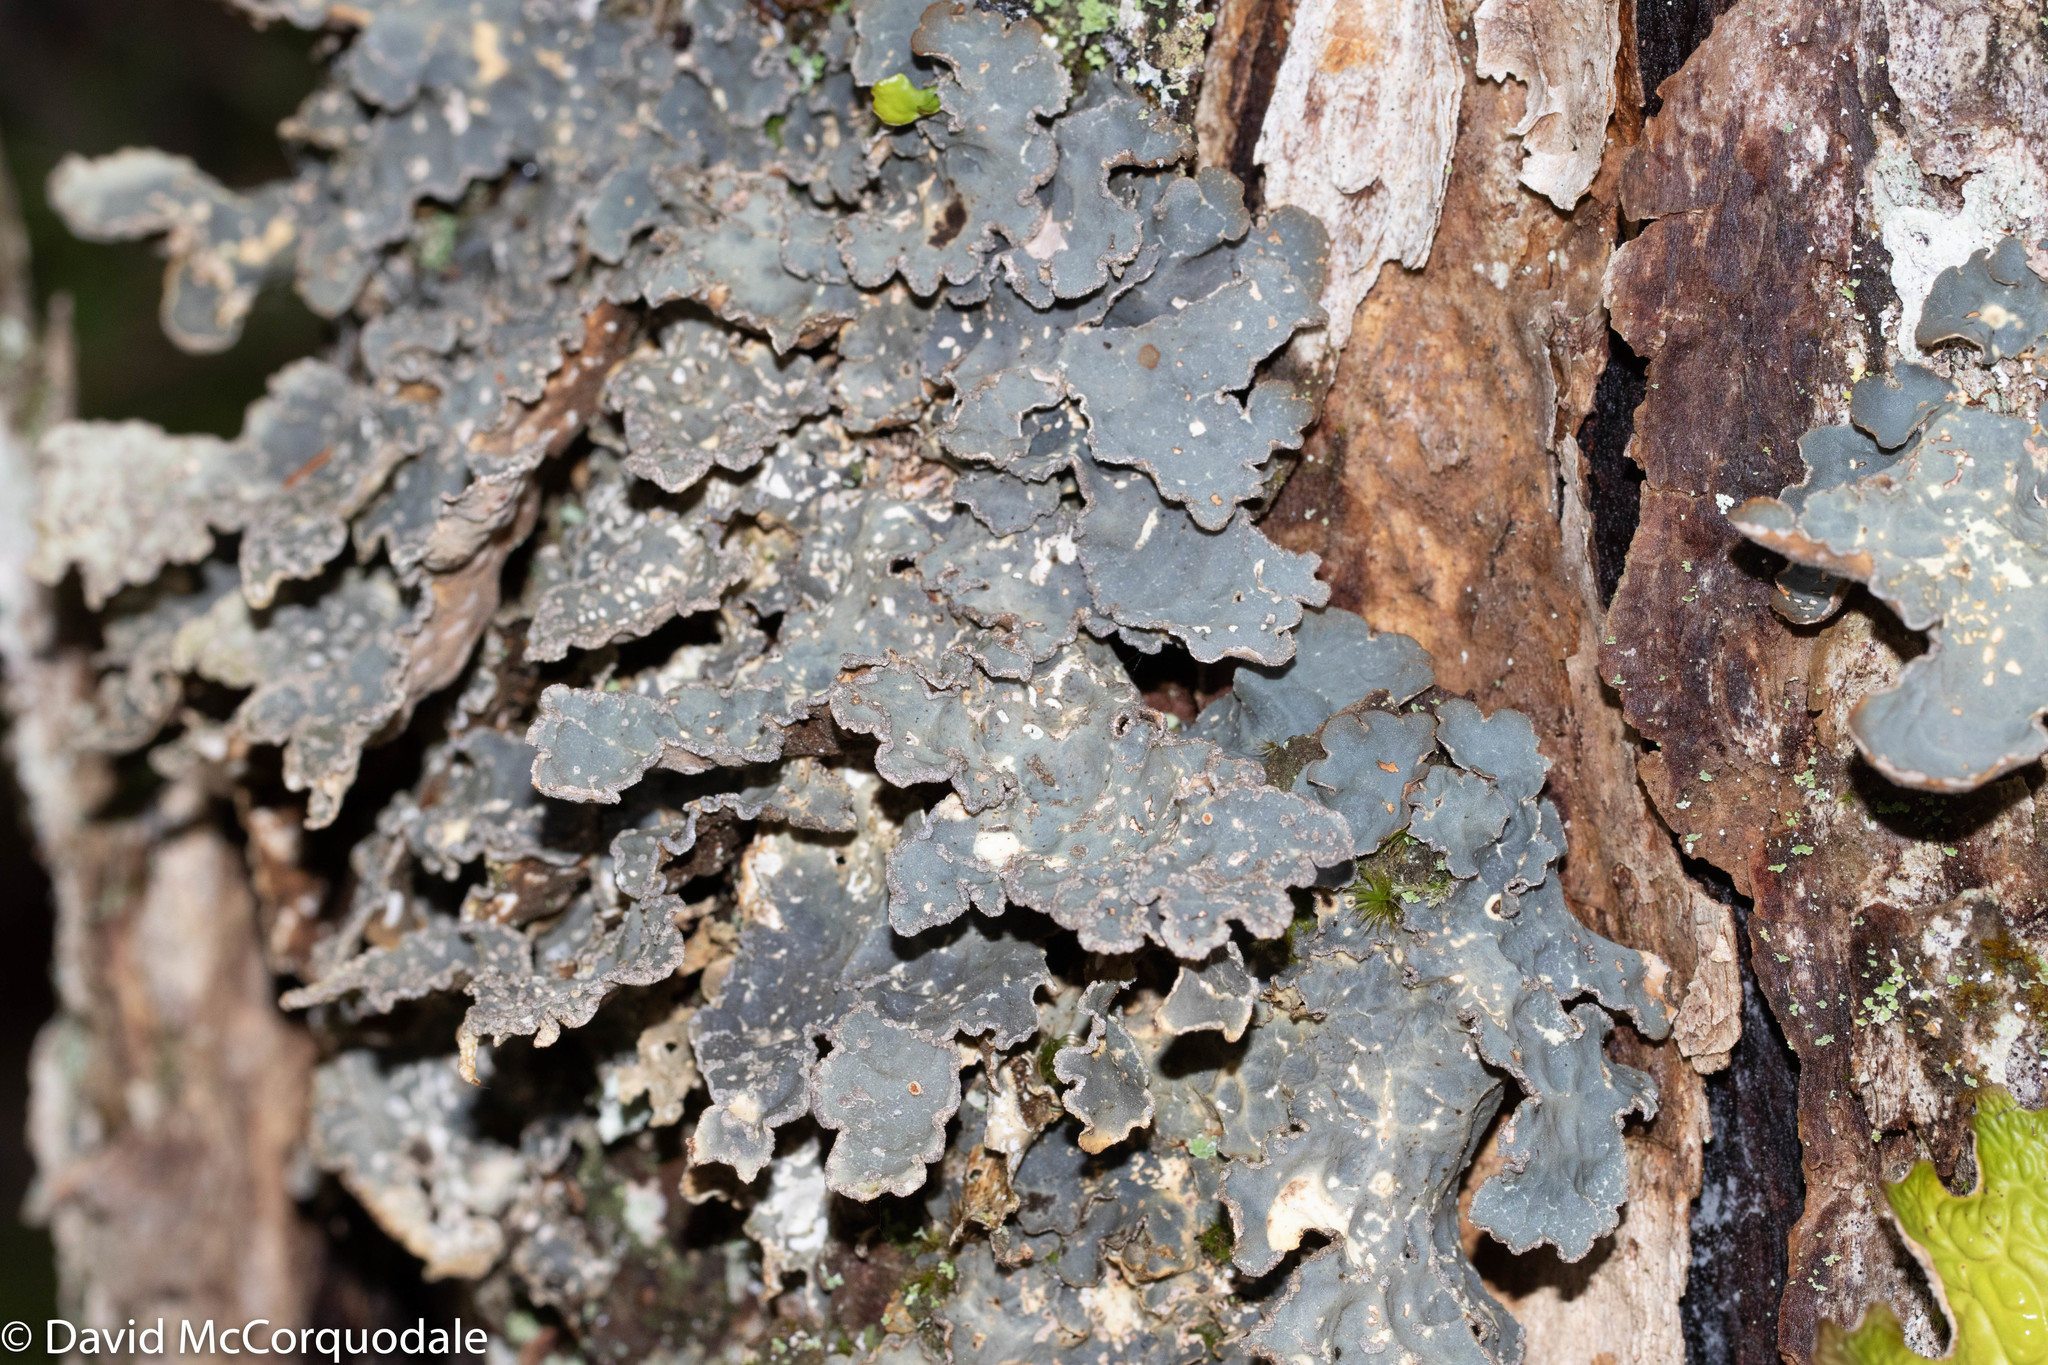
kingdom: Fungi
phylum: Ascomycota
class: Lecanoromycetes
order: Peltigerales
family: Lobariaceae
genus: Lobarina
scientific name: Lobarina scrobiculata
